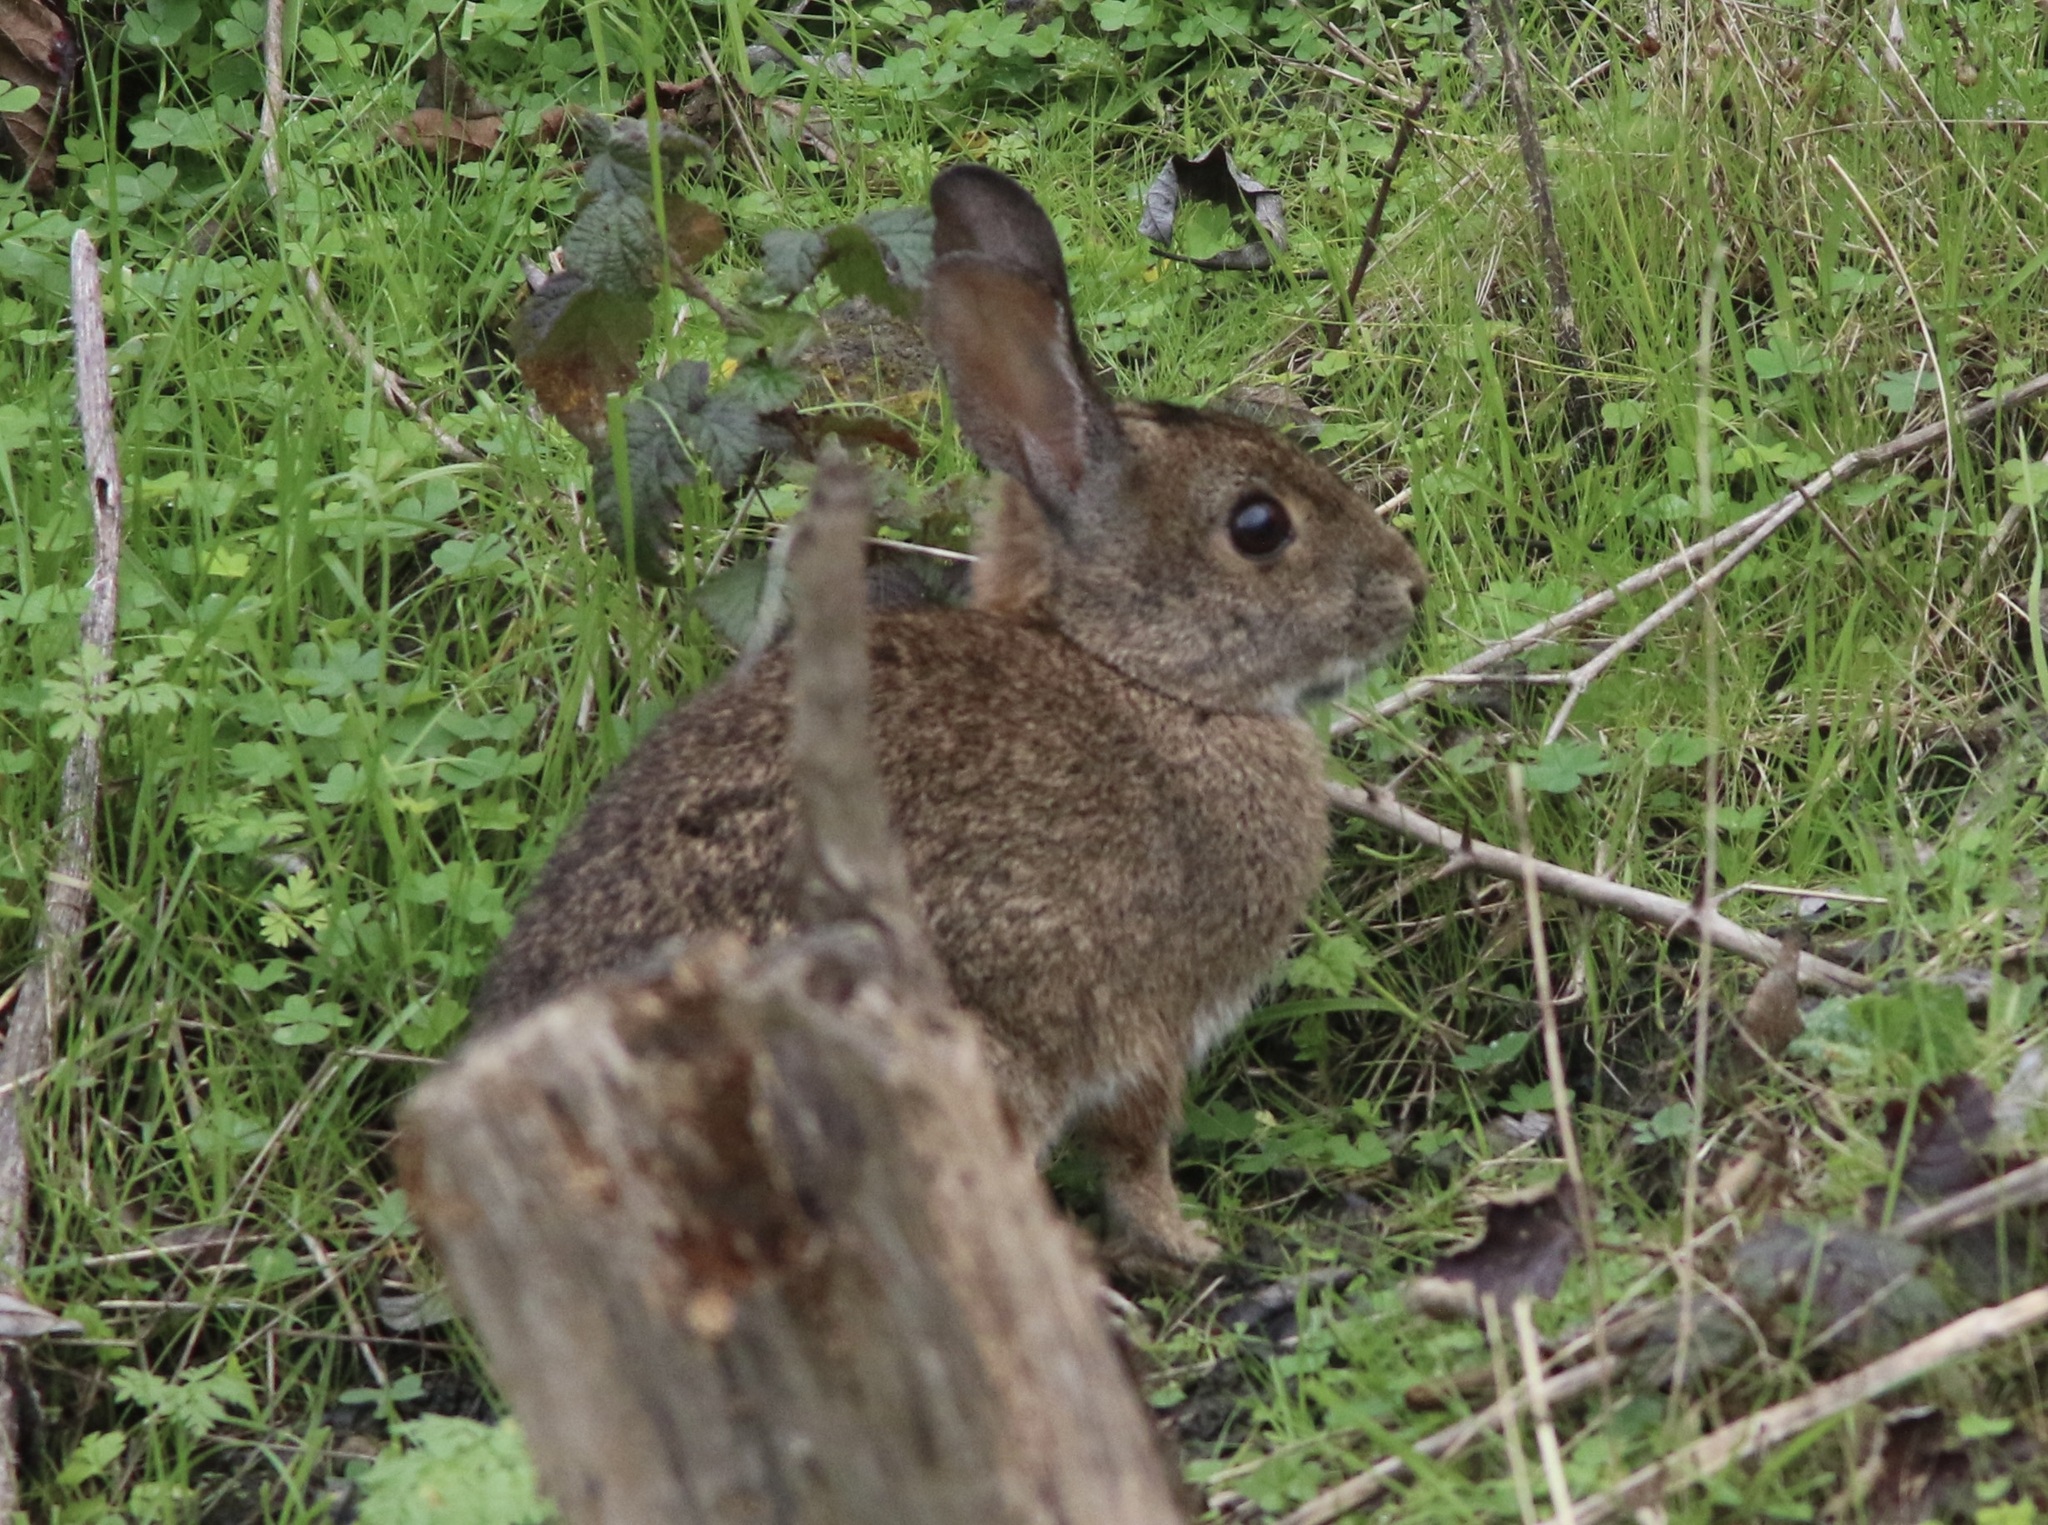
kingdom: Animalia
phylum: Chordata
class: Mammalia
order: Lagomorpha
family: Leporidae
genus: Sylvilagus
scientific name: Sylvilagus bachmani
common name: Brush rabbit
